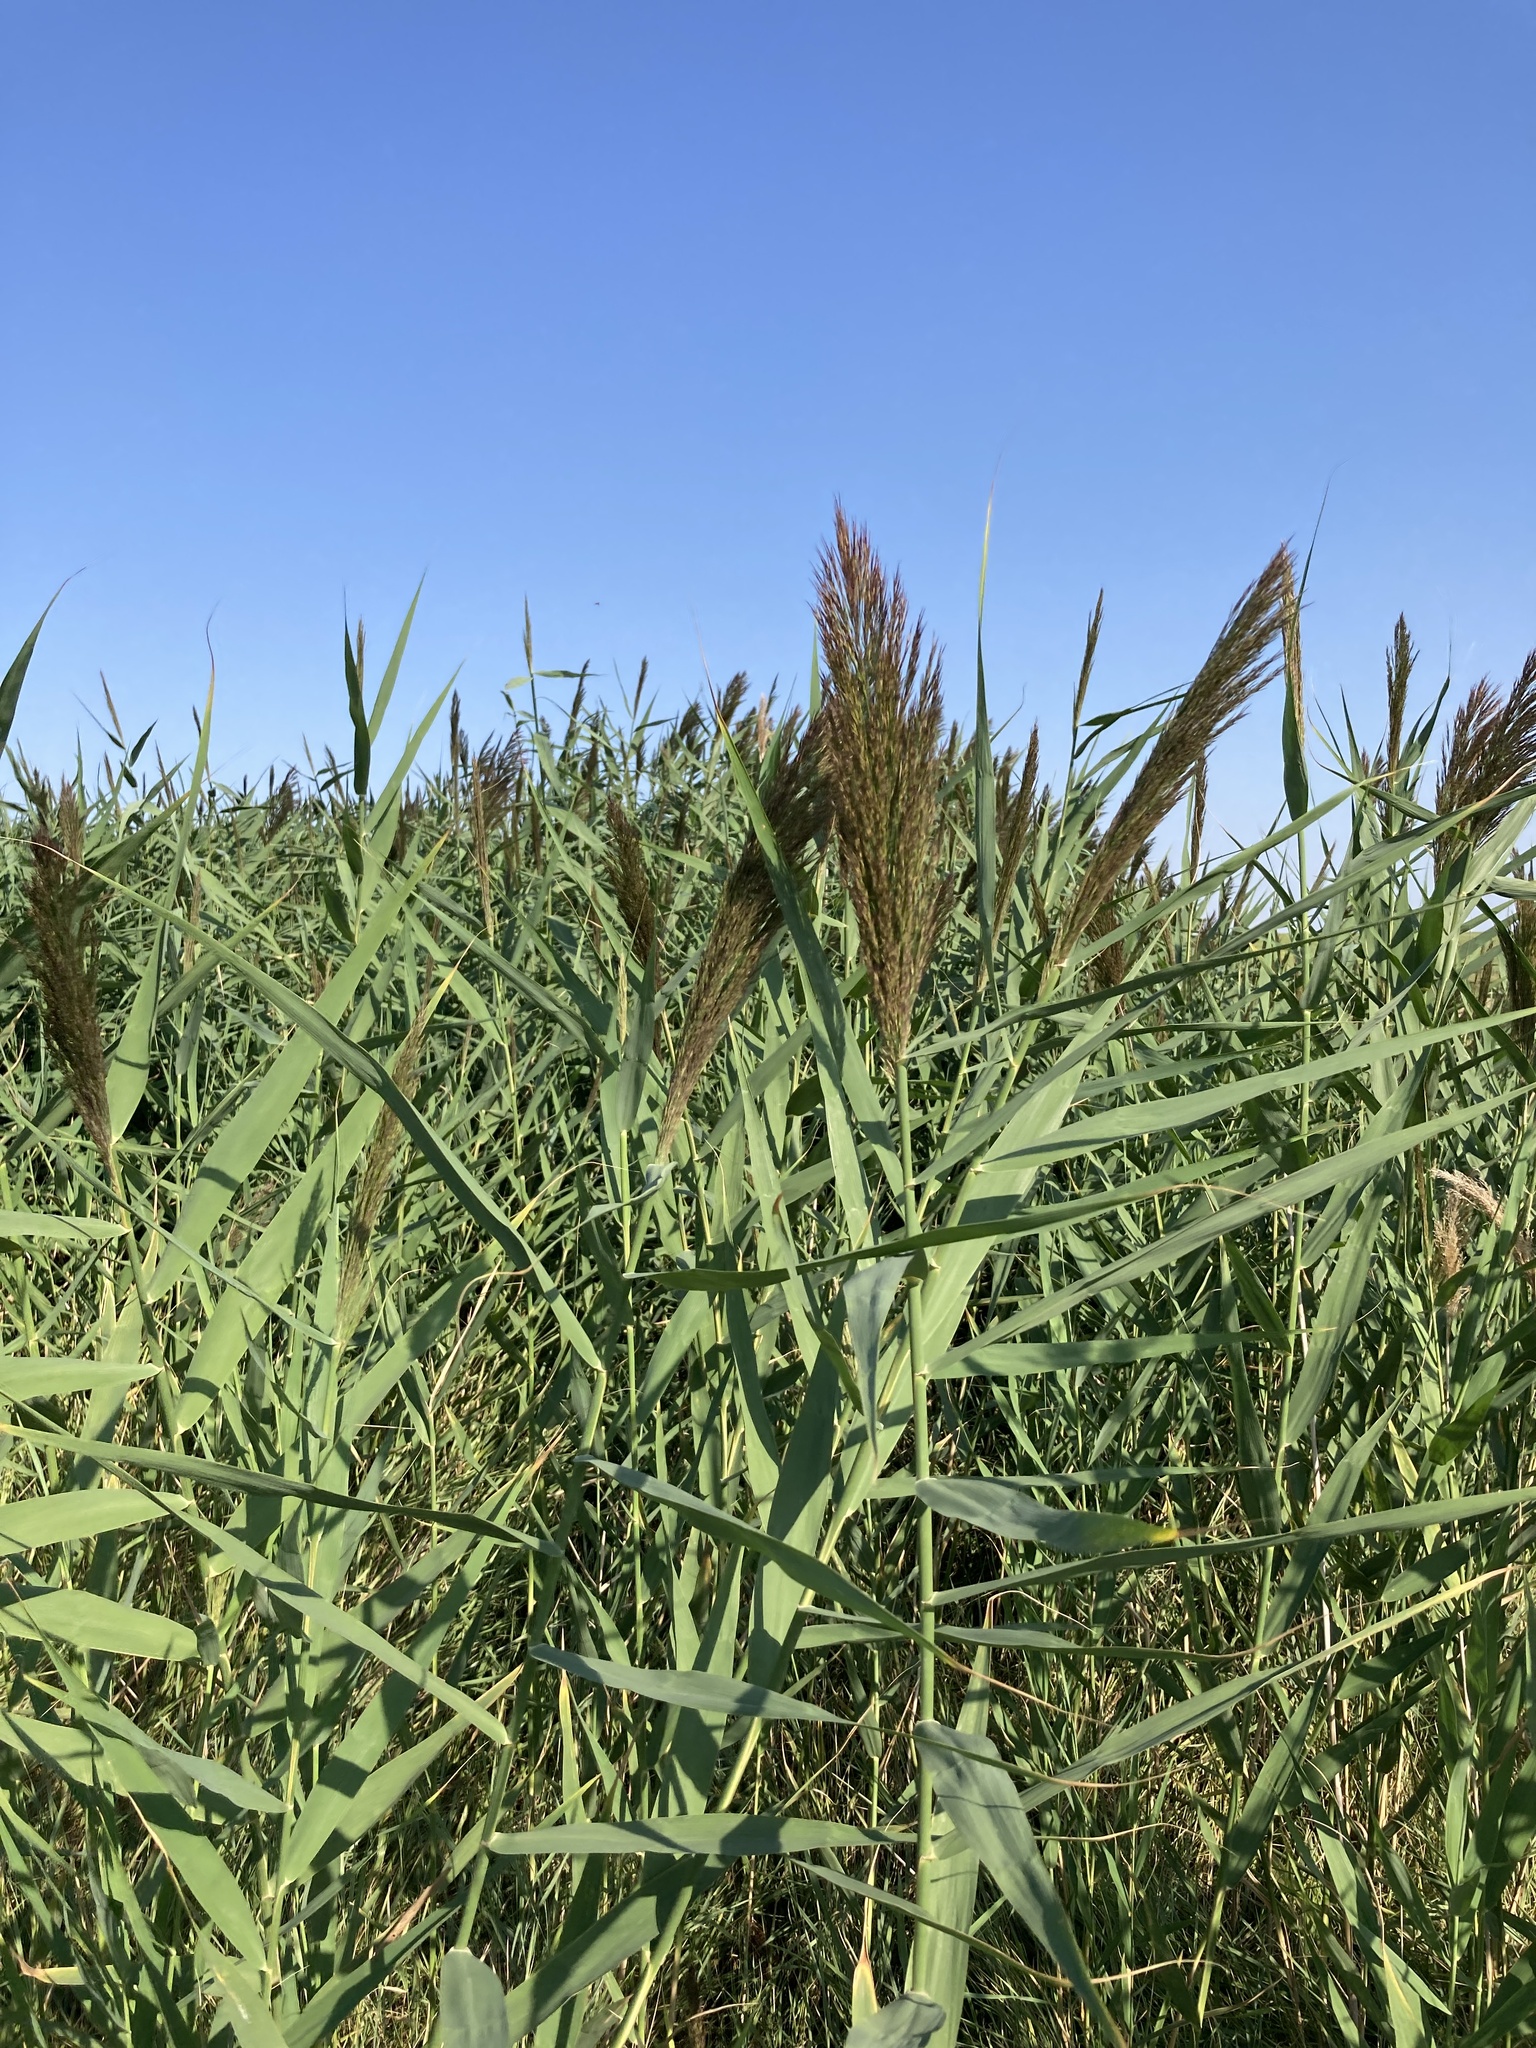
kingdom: Plantae
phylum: Tracheophyta
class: Liliopsida
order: Poales
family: Poaceae
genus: Phragmites
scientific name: Phragmites australis
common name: Common reed
